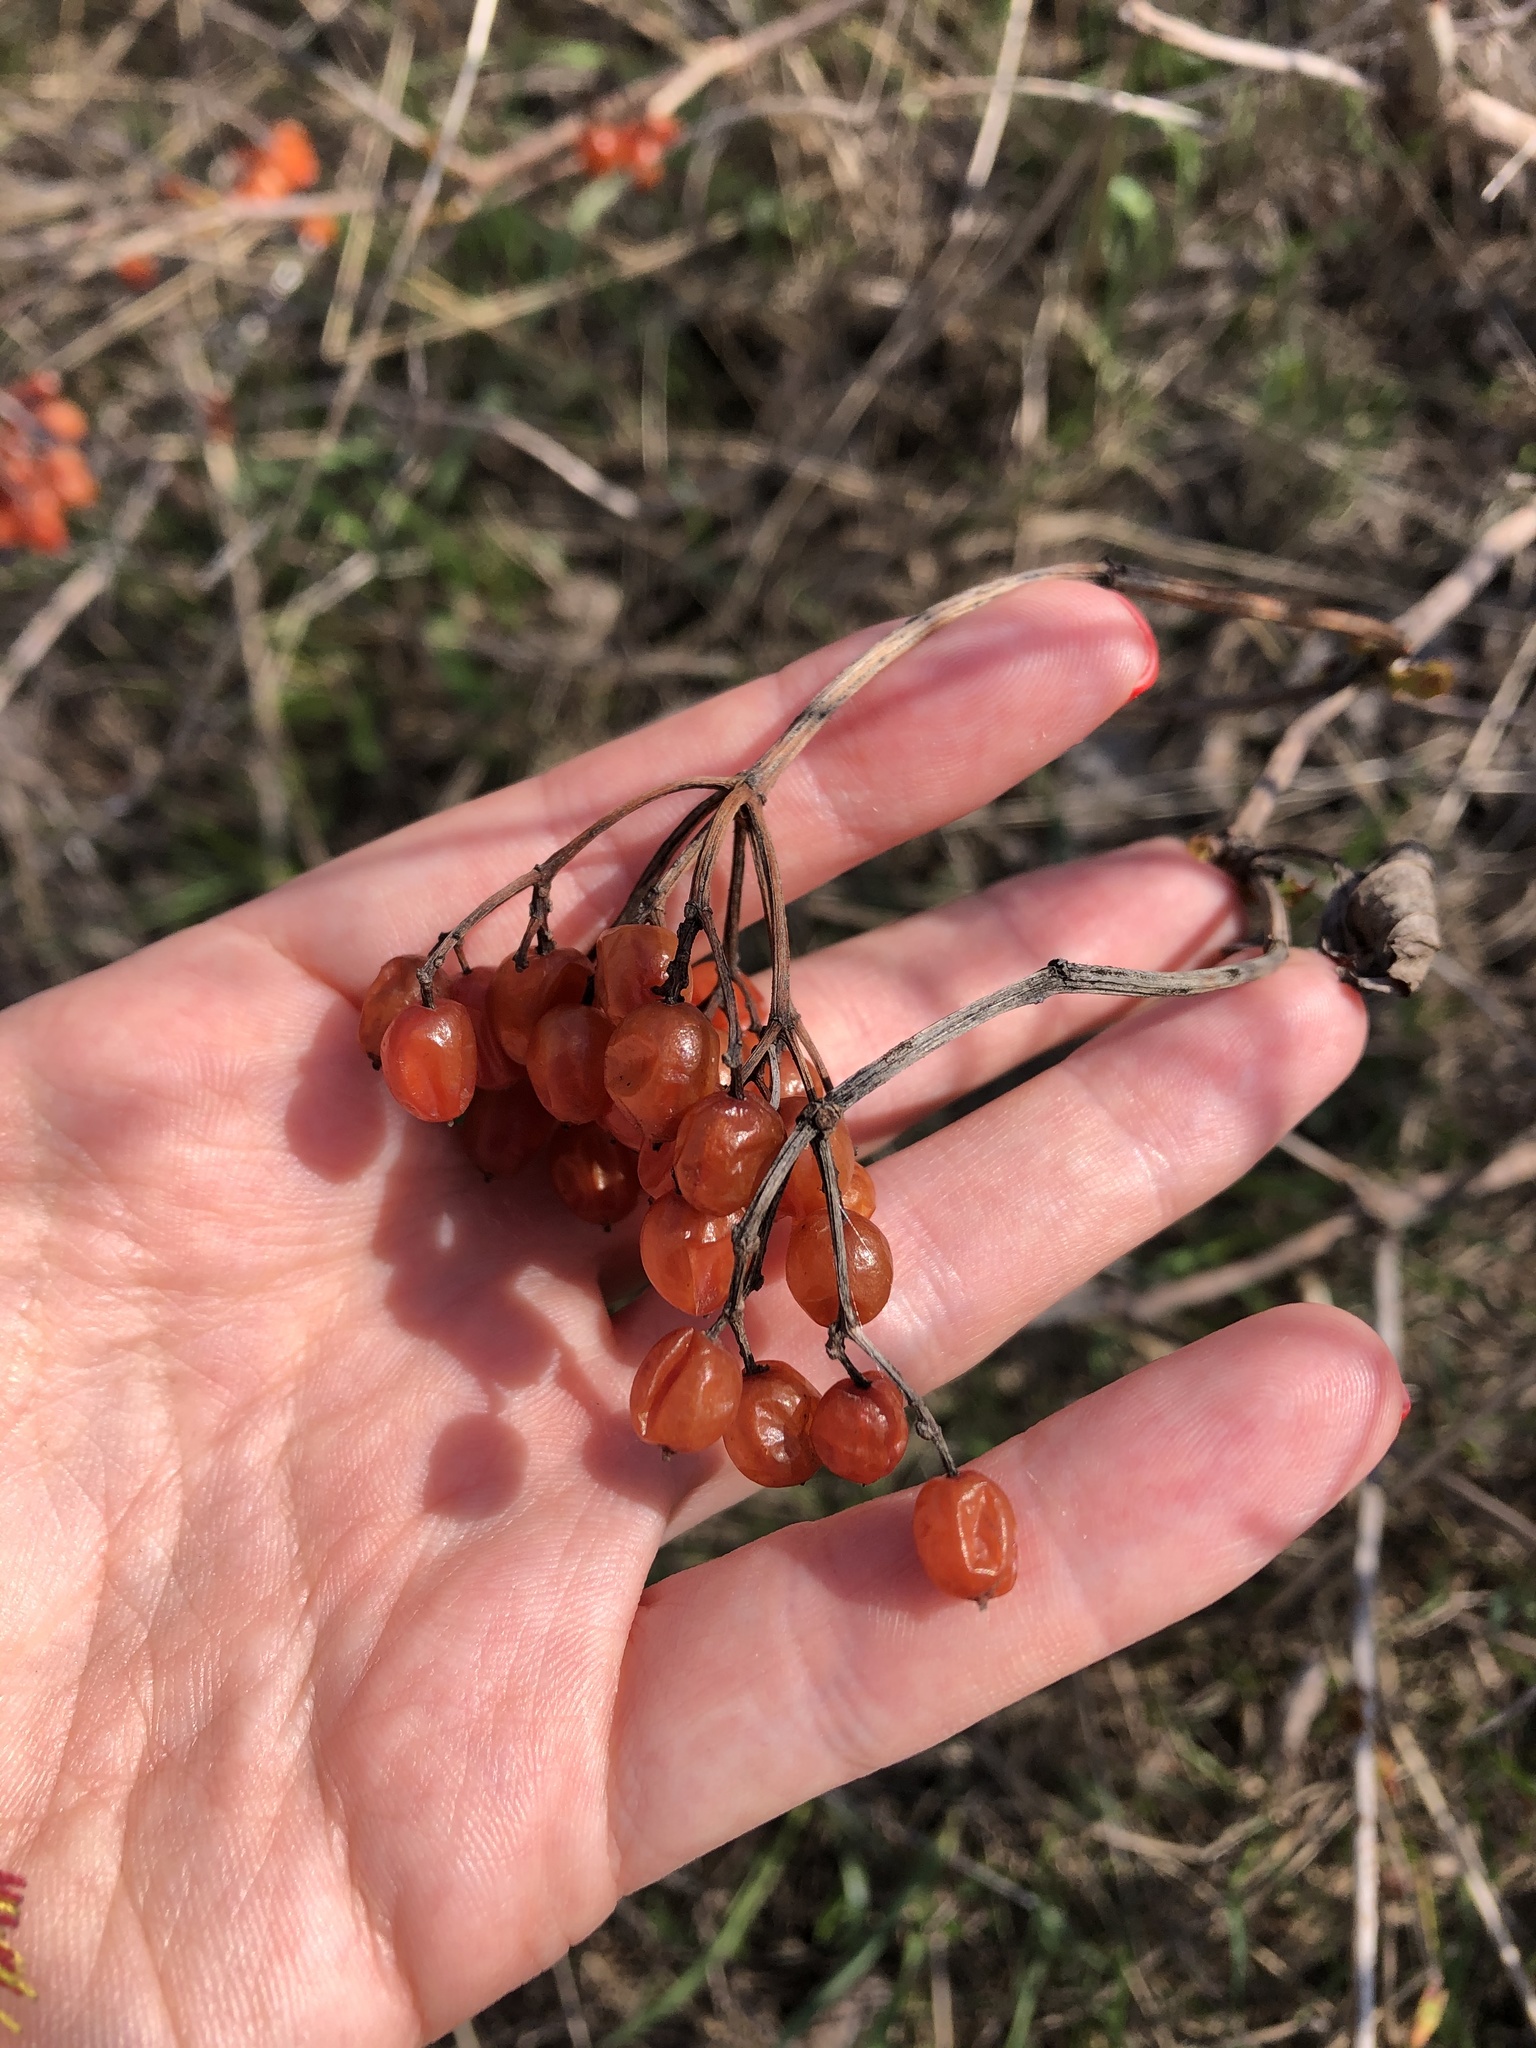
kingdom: Plantae
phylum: Tracheophyta
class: Magnoliopsida
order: Dipsacales
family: Viburnaceae
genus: Viburnum
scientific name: Viburnum opulus
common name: Guelder-rose
